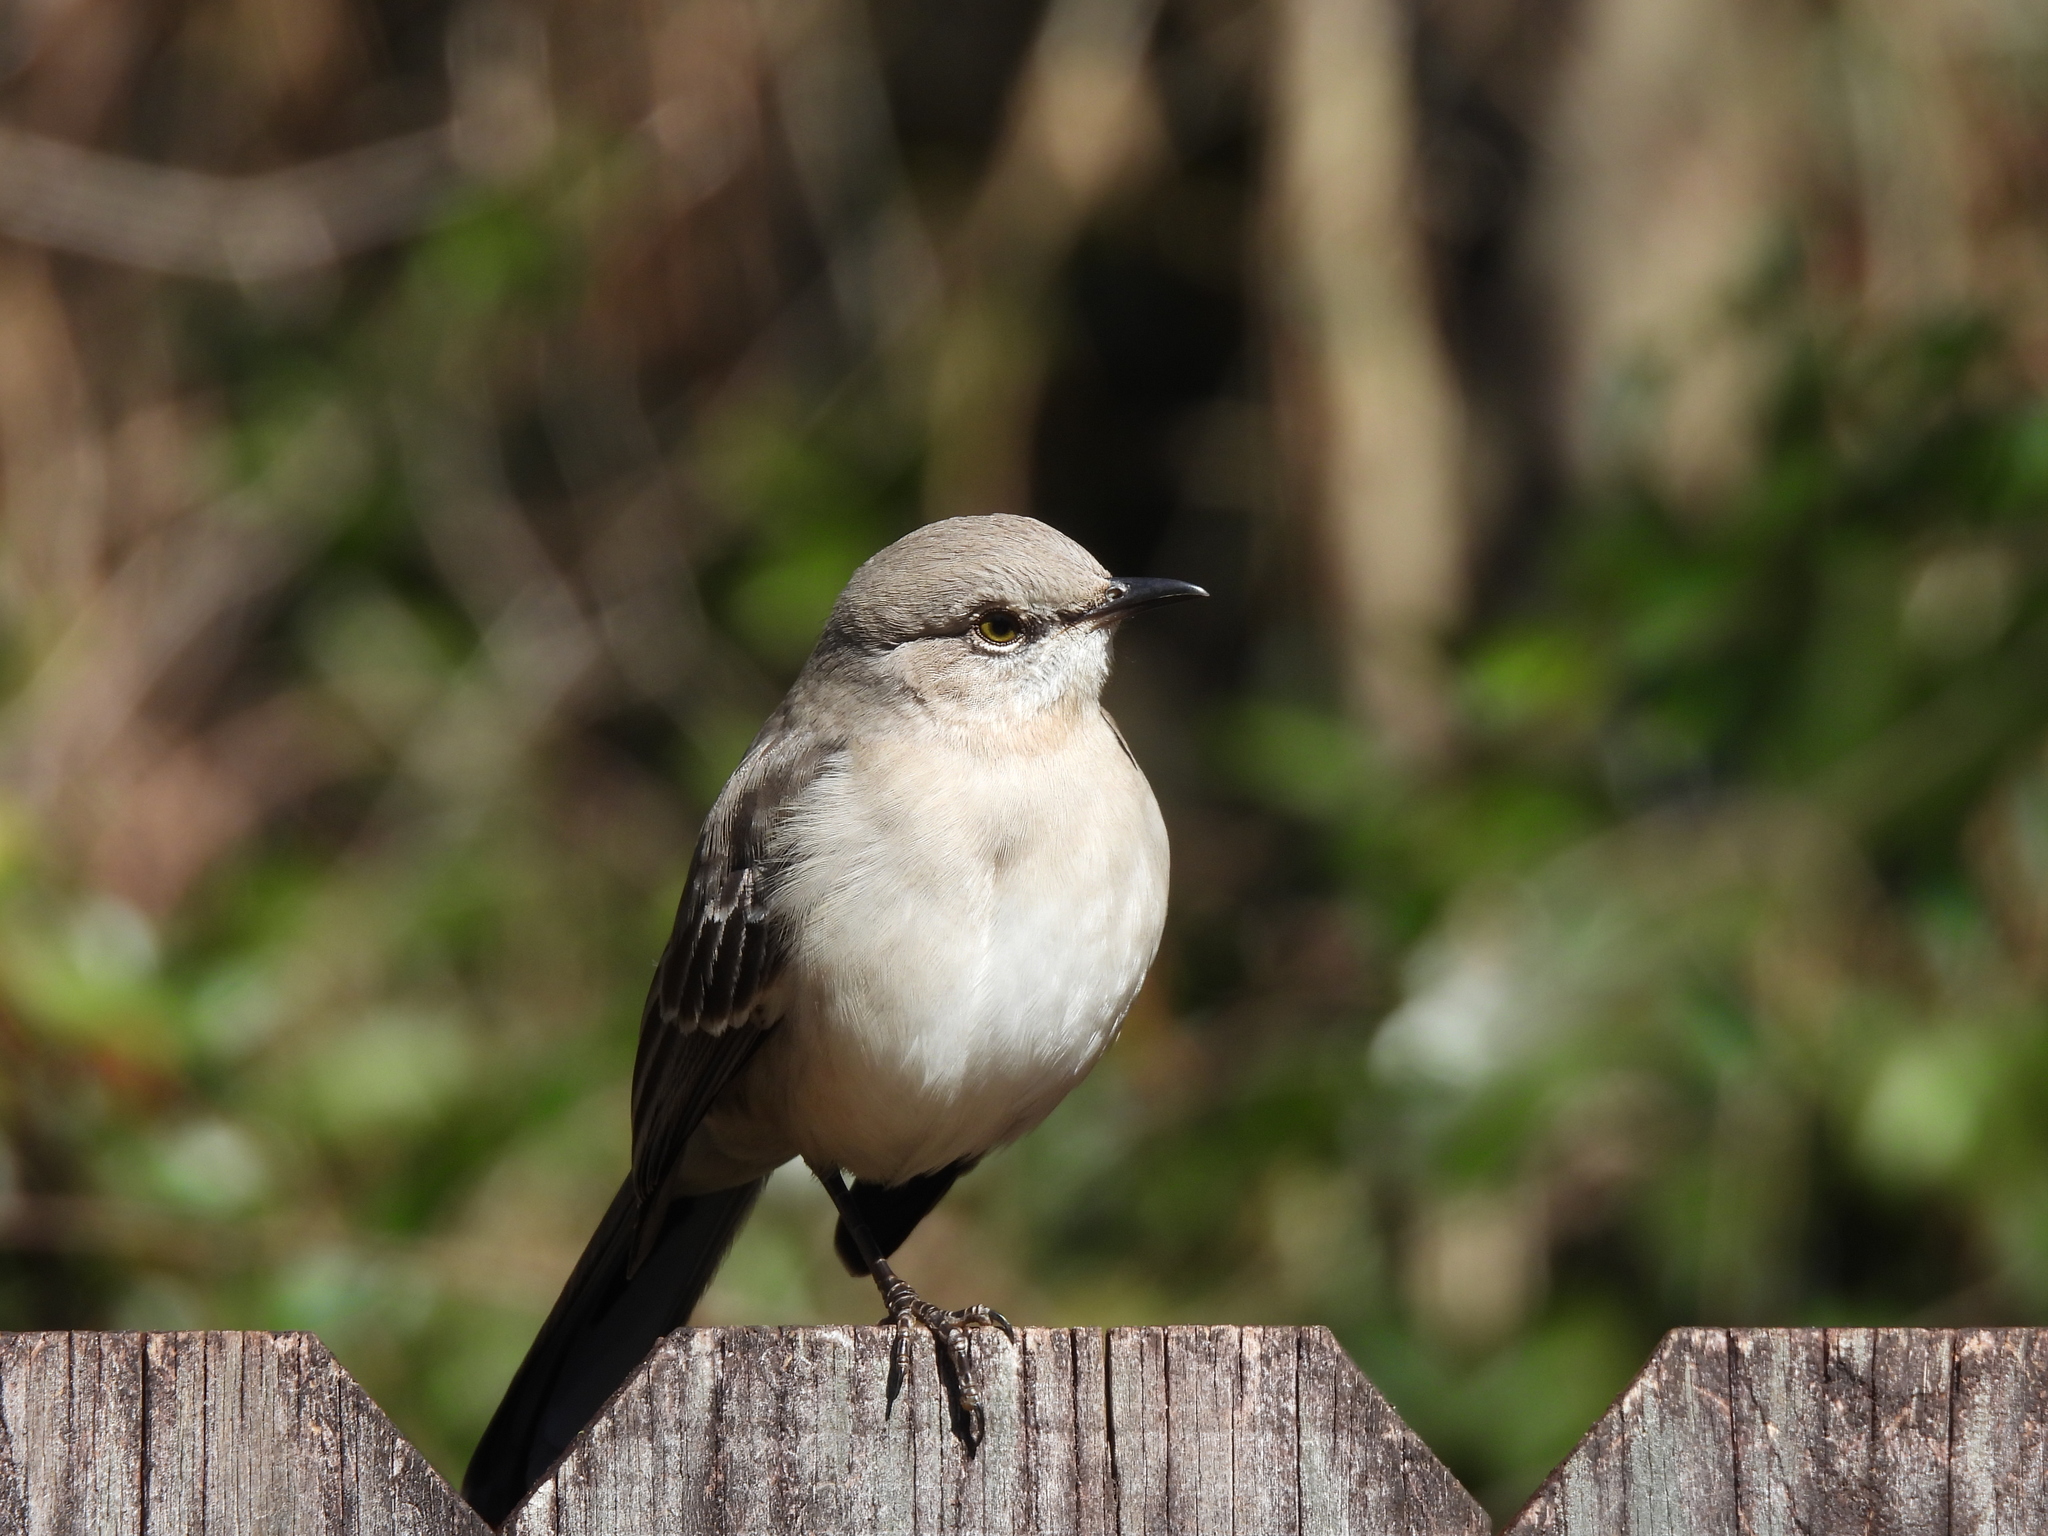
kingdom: Animalia
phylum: Chordata
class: Aves
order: Passeriformes
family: Mimidae
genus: Mimus
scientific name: Mimus polyglottos
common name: Northern mockingbird
